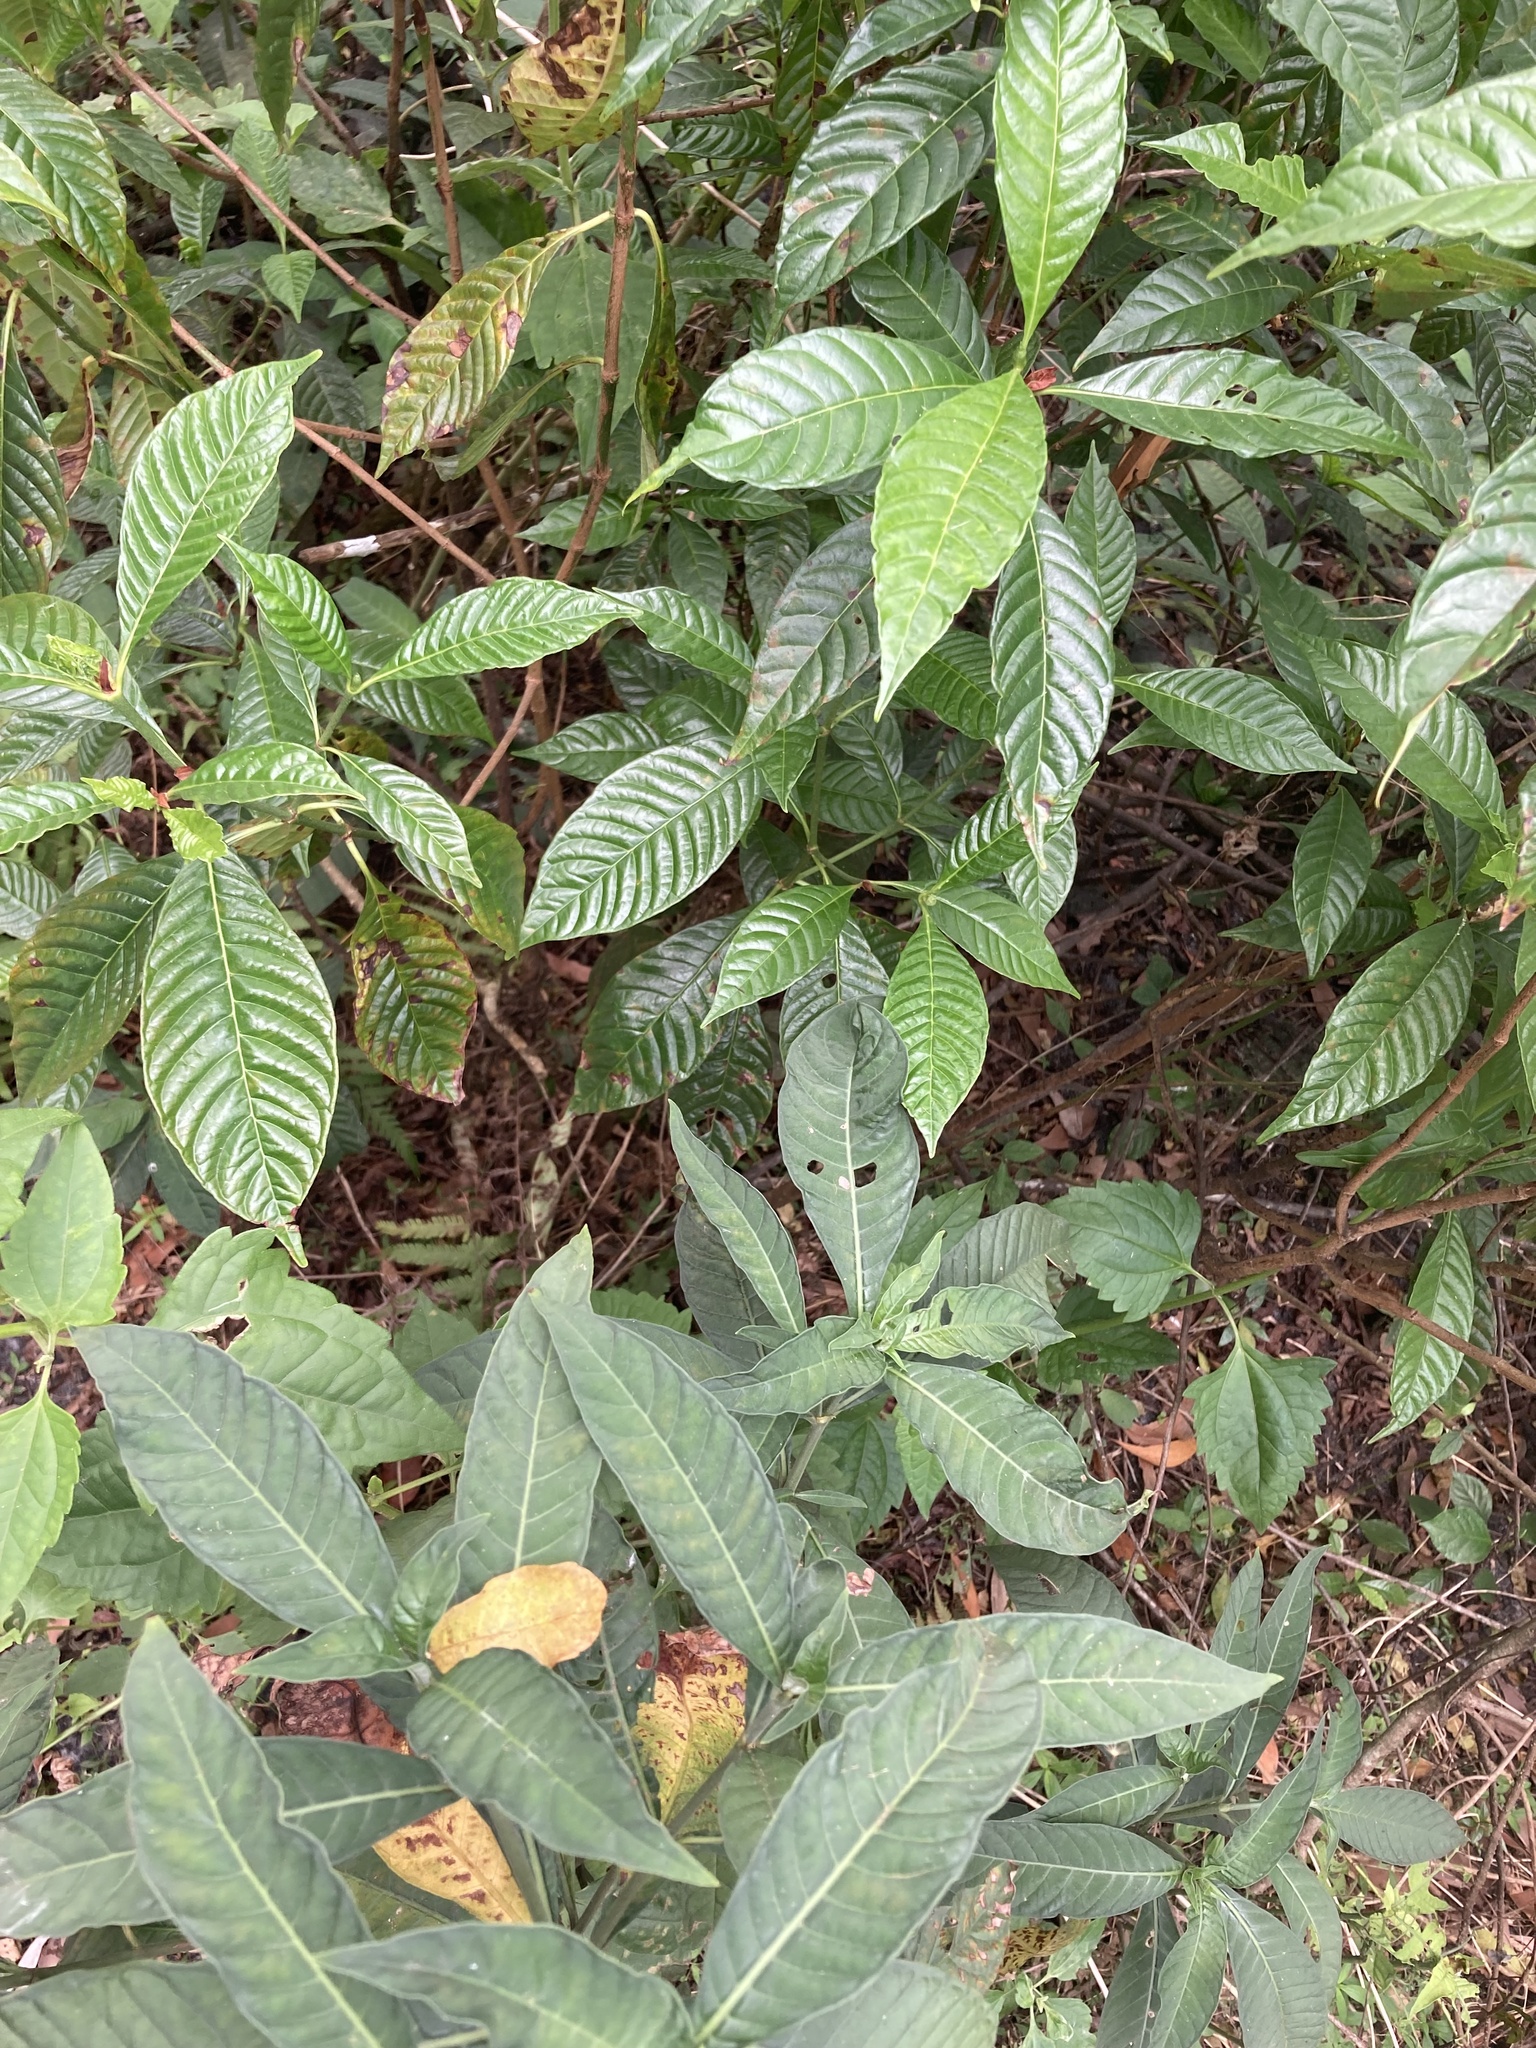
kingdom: Plantae
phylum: Tracheophyta
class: Magnoliopsida
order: Gentianales
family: Rubiaceae
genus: Psychotria
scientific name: Psychotria nervosa
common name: Bastard cankerberry
